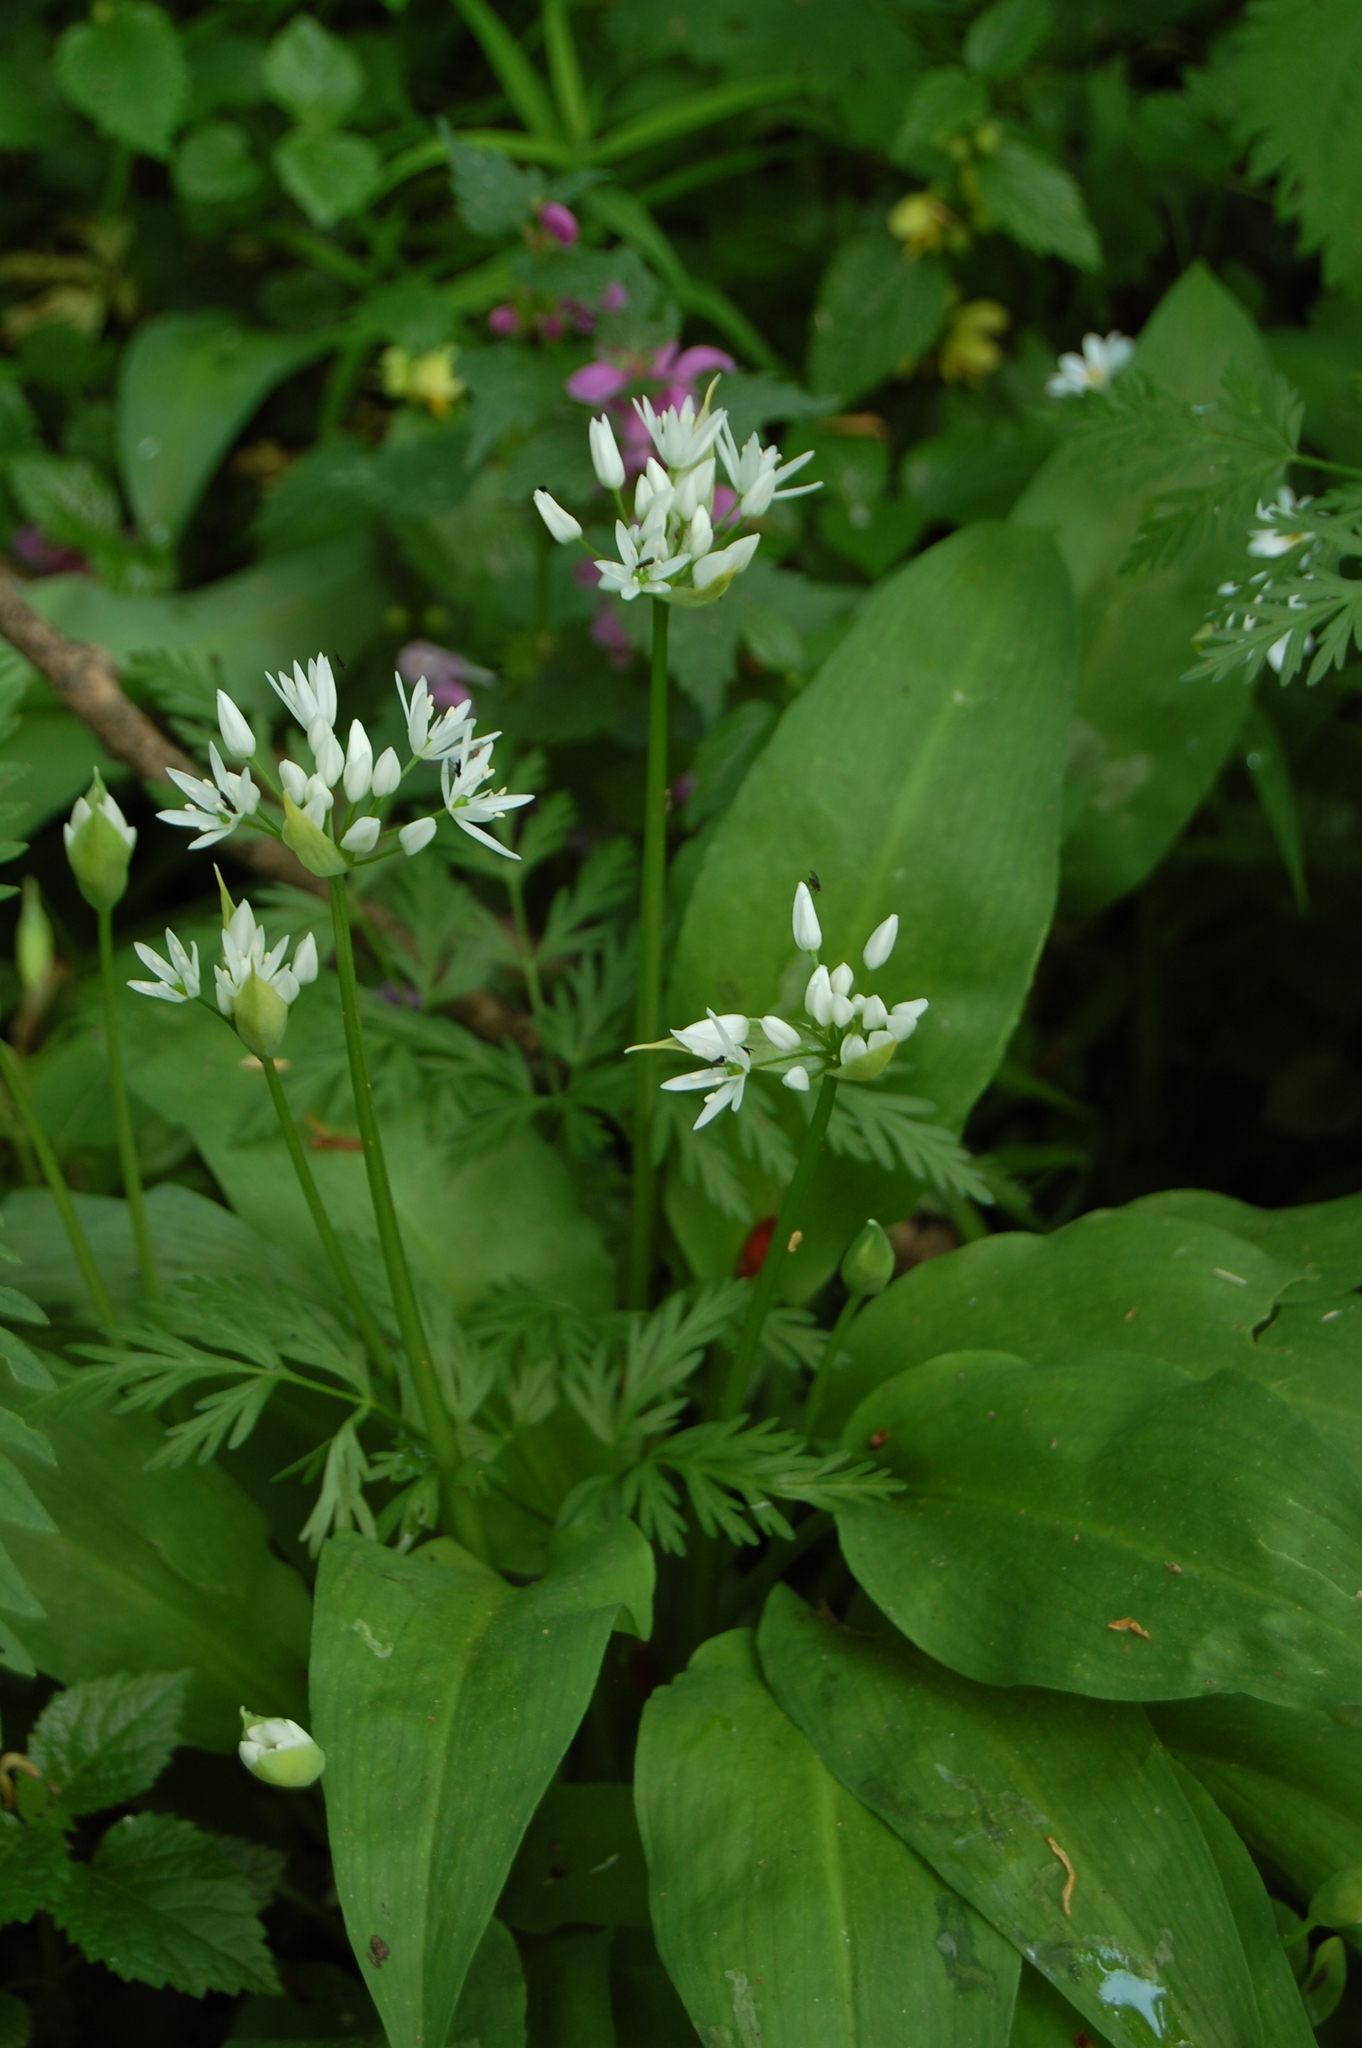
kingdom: Plantae
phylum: Tracheophyta
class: Liliopsida
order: Asparagales
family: Amaryllidaceae
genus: Allium
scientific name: Allium ursinum
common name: Ramsons
